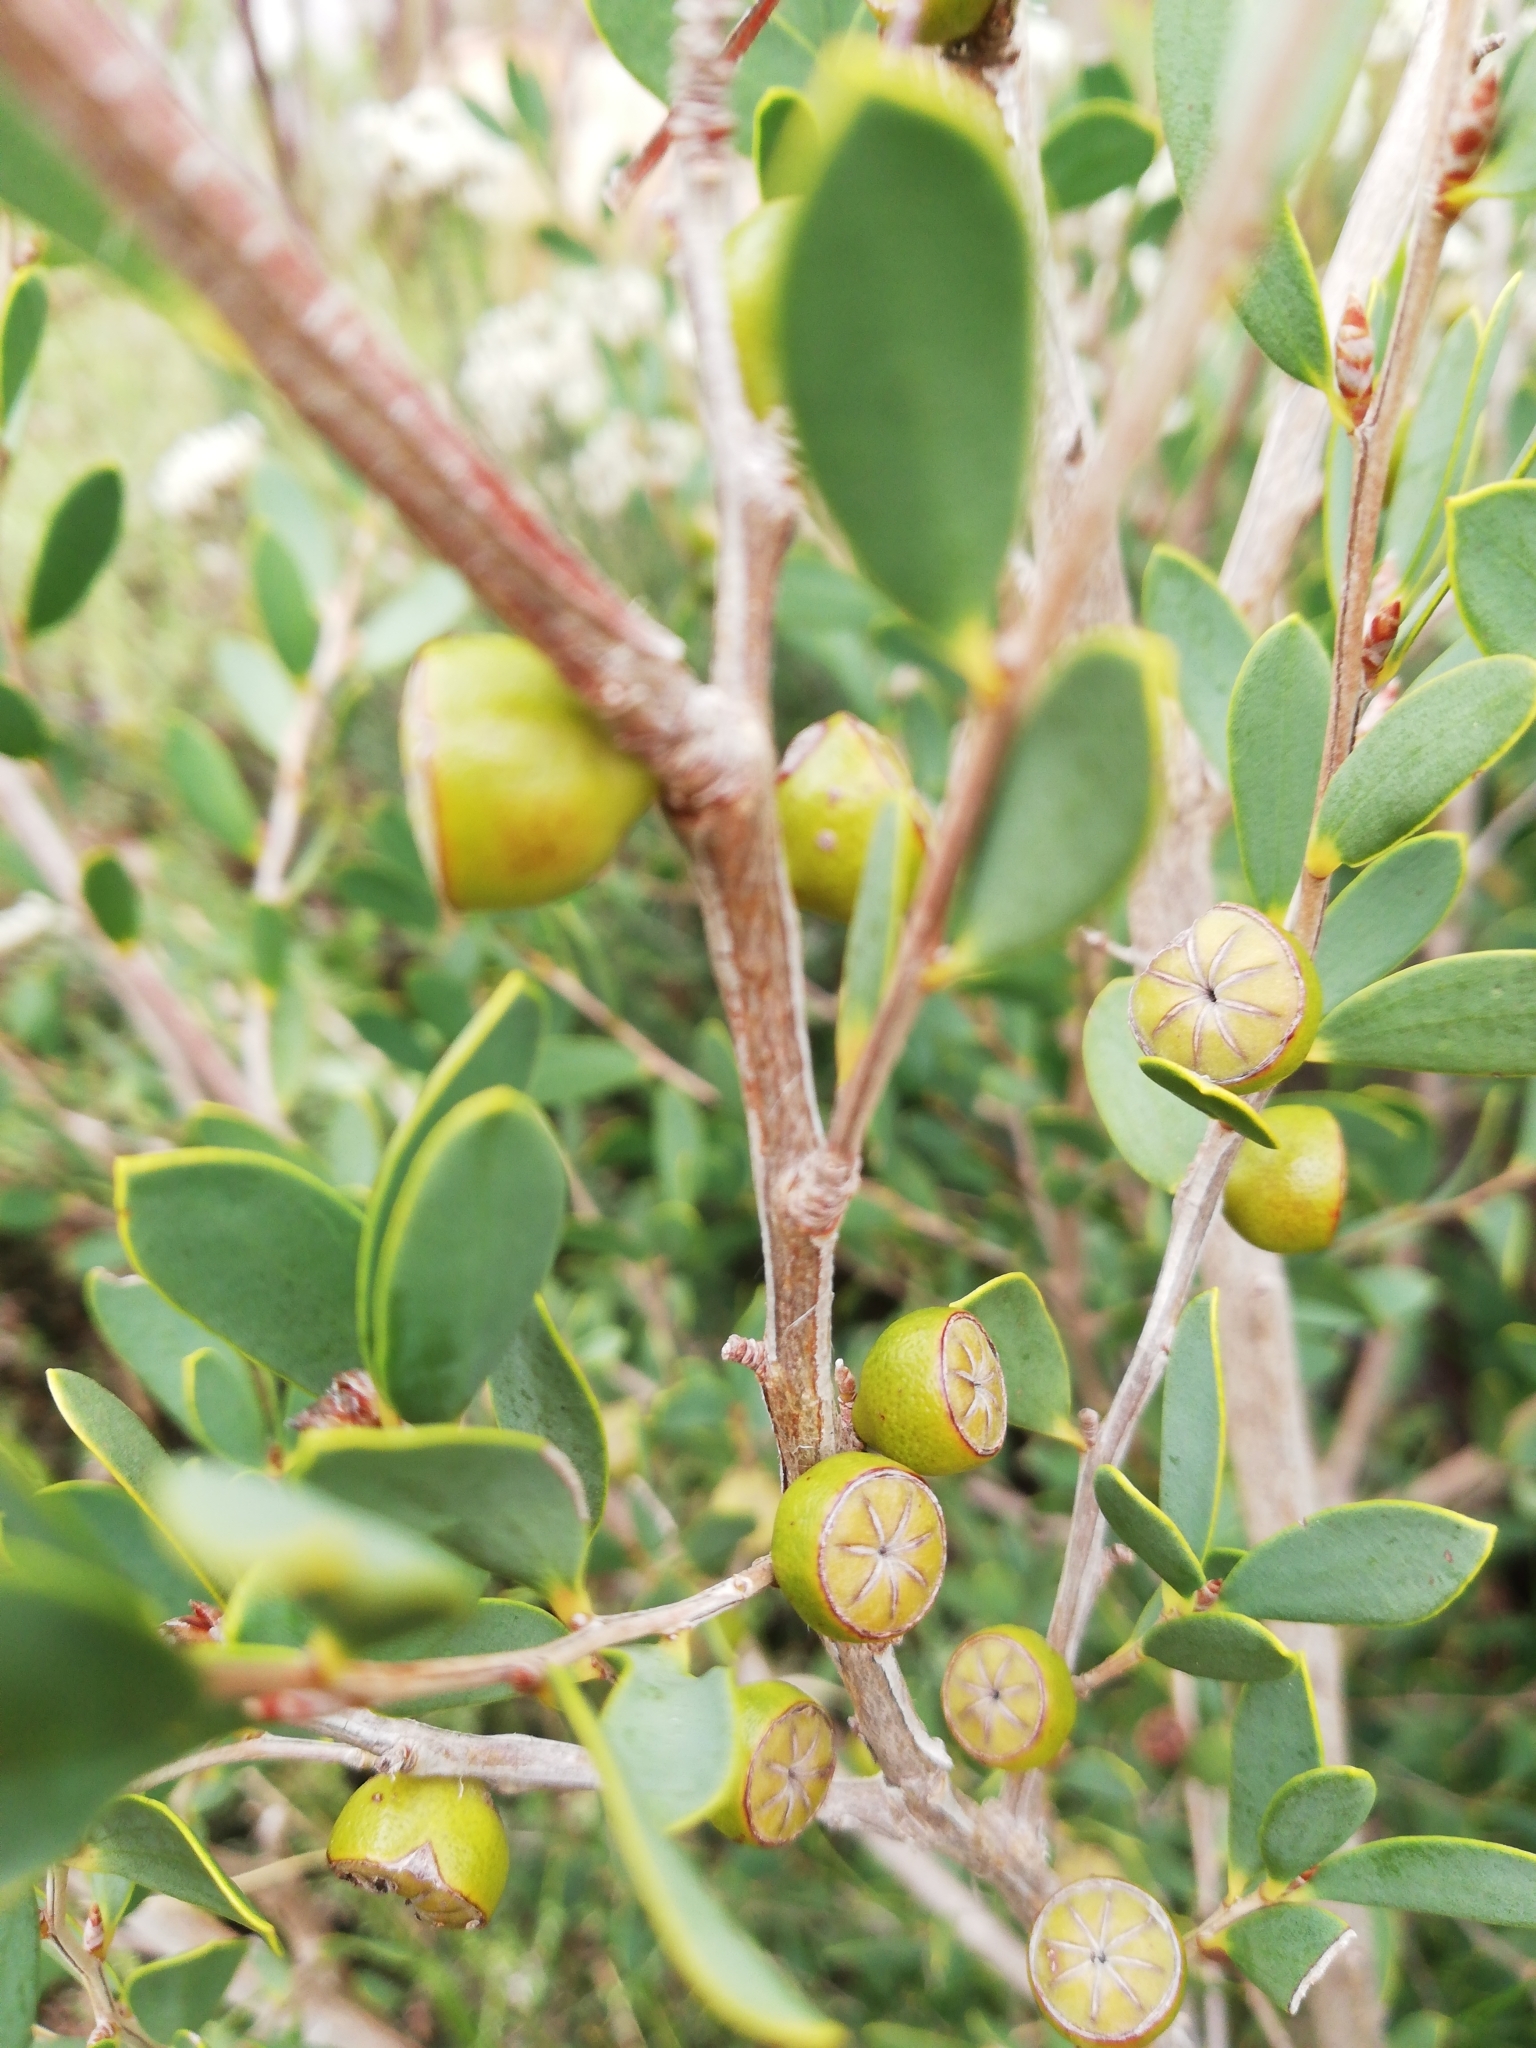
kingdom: Plantae
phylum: Tracheophyta
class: Magnoliopsida
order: Myrtales
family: Myrtaceae
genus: Leptospermum
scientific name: Leptospermum laevigatum
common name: Australian teatree
